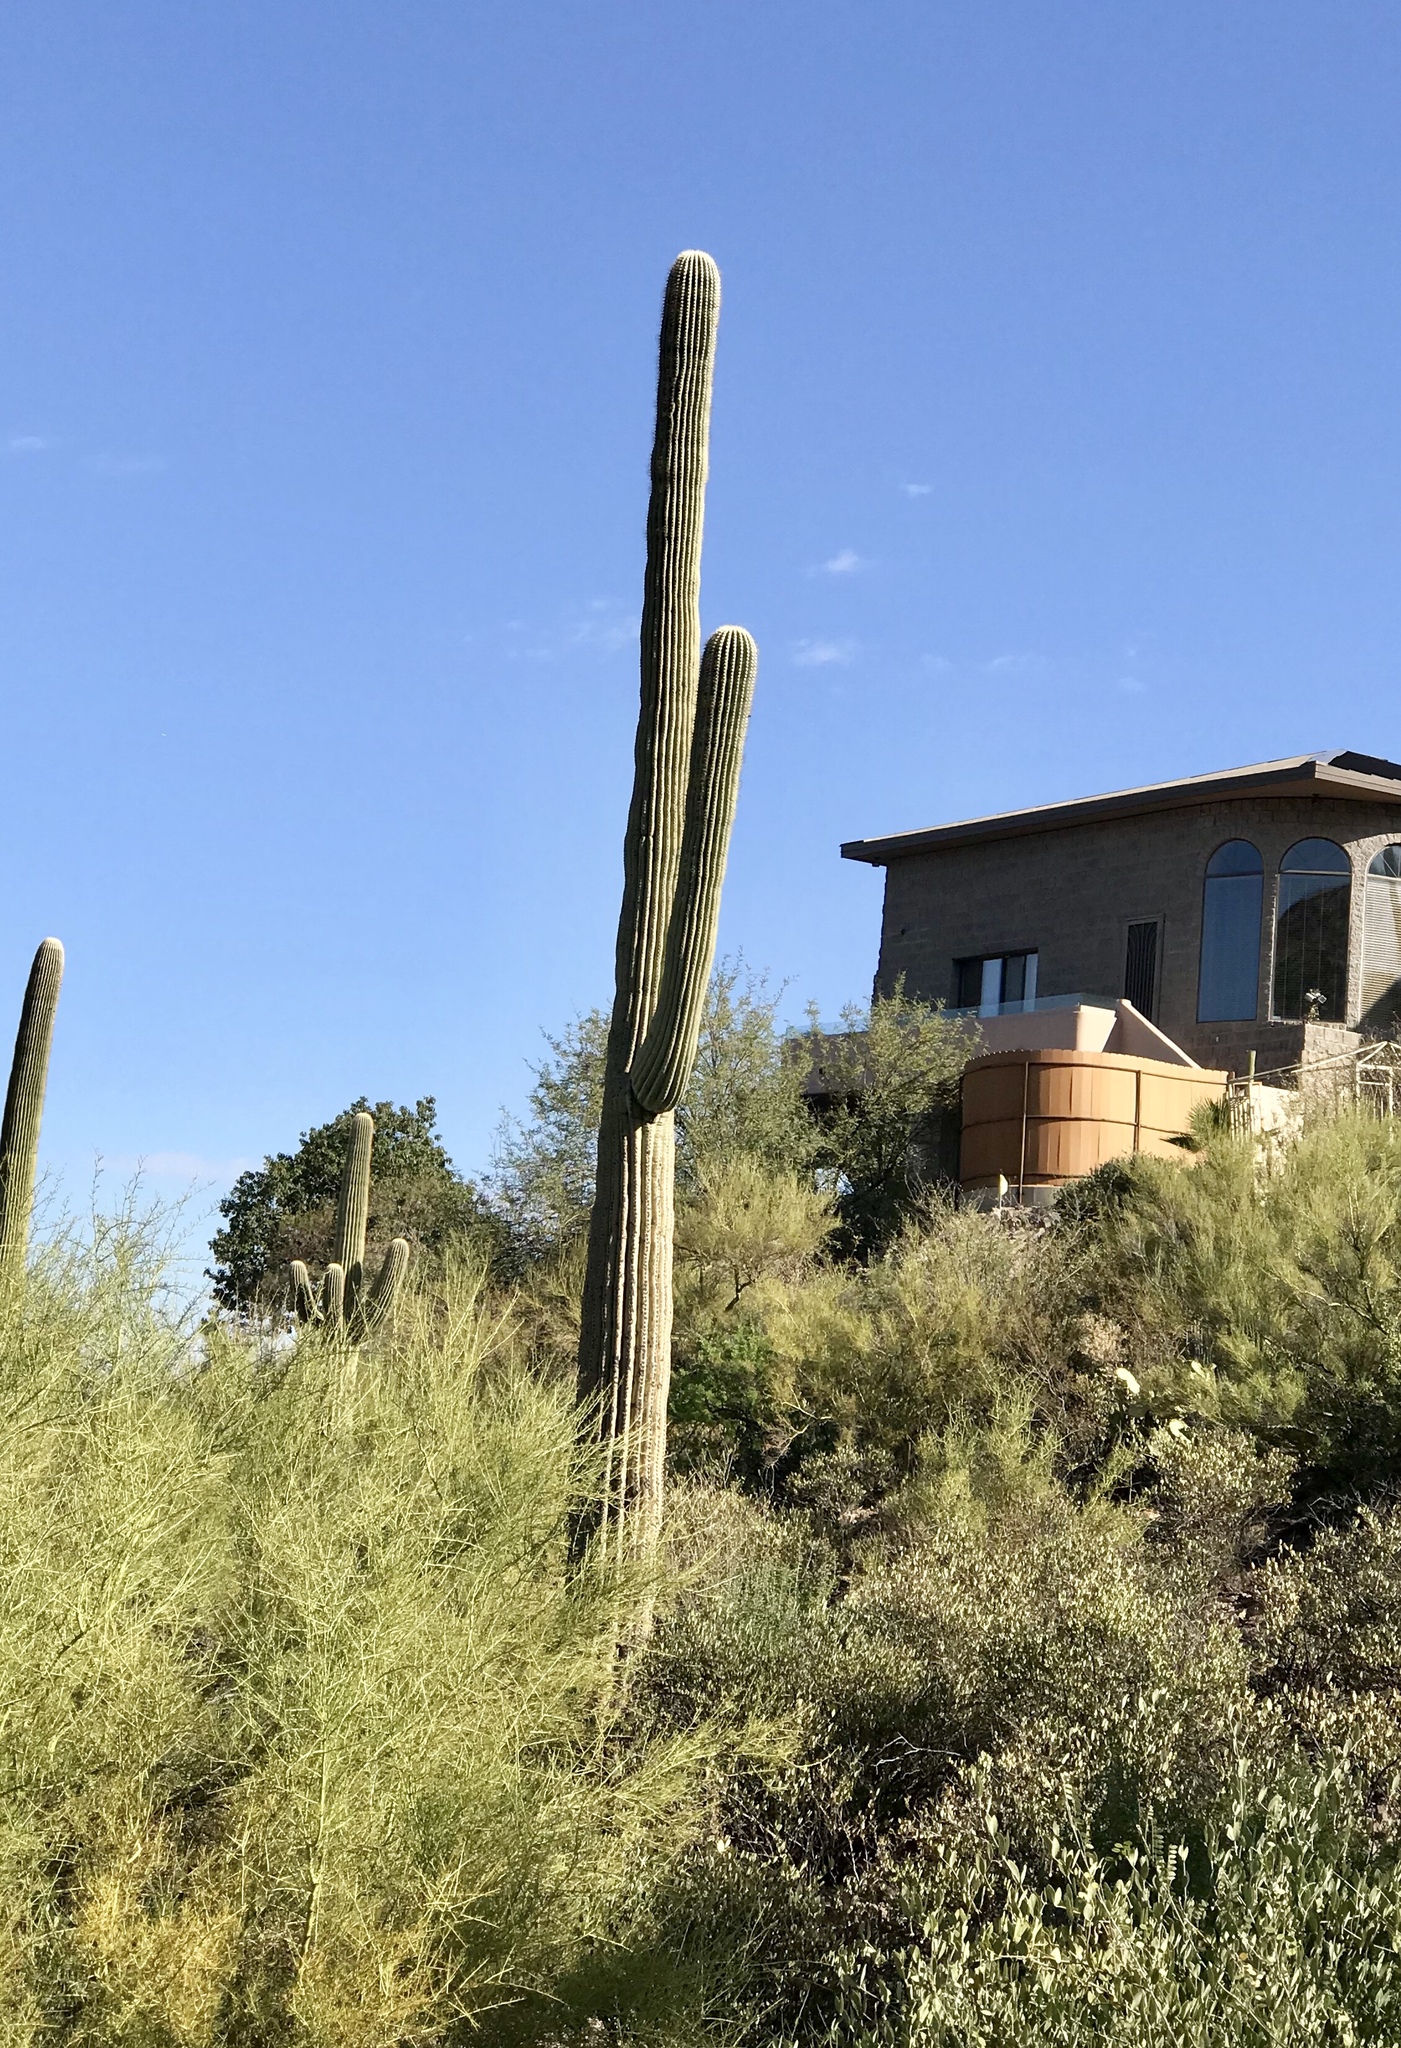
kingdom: Plantae
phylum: Tracheophyta
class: Magnoliopsida
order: Caryophyllales
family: Cactaceae
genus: Carnegiea
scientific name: Carnegiea gigantea
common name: Saguaro
